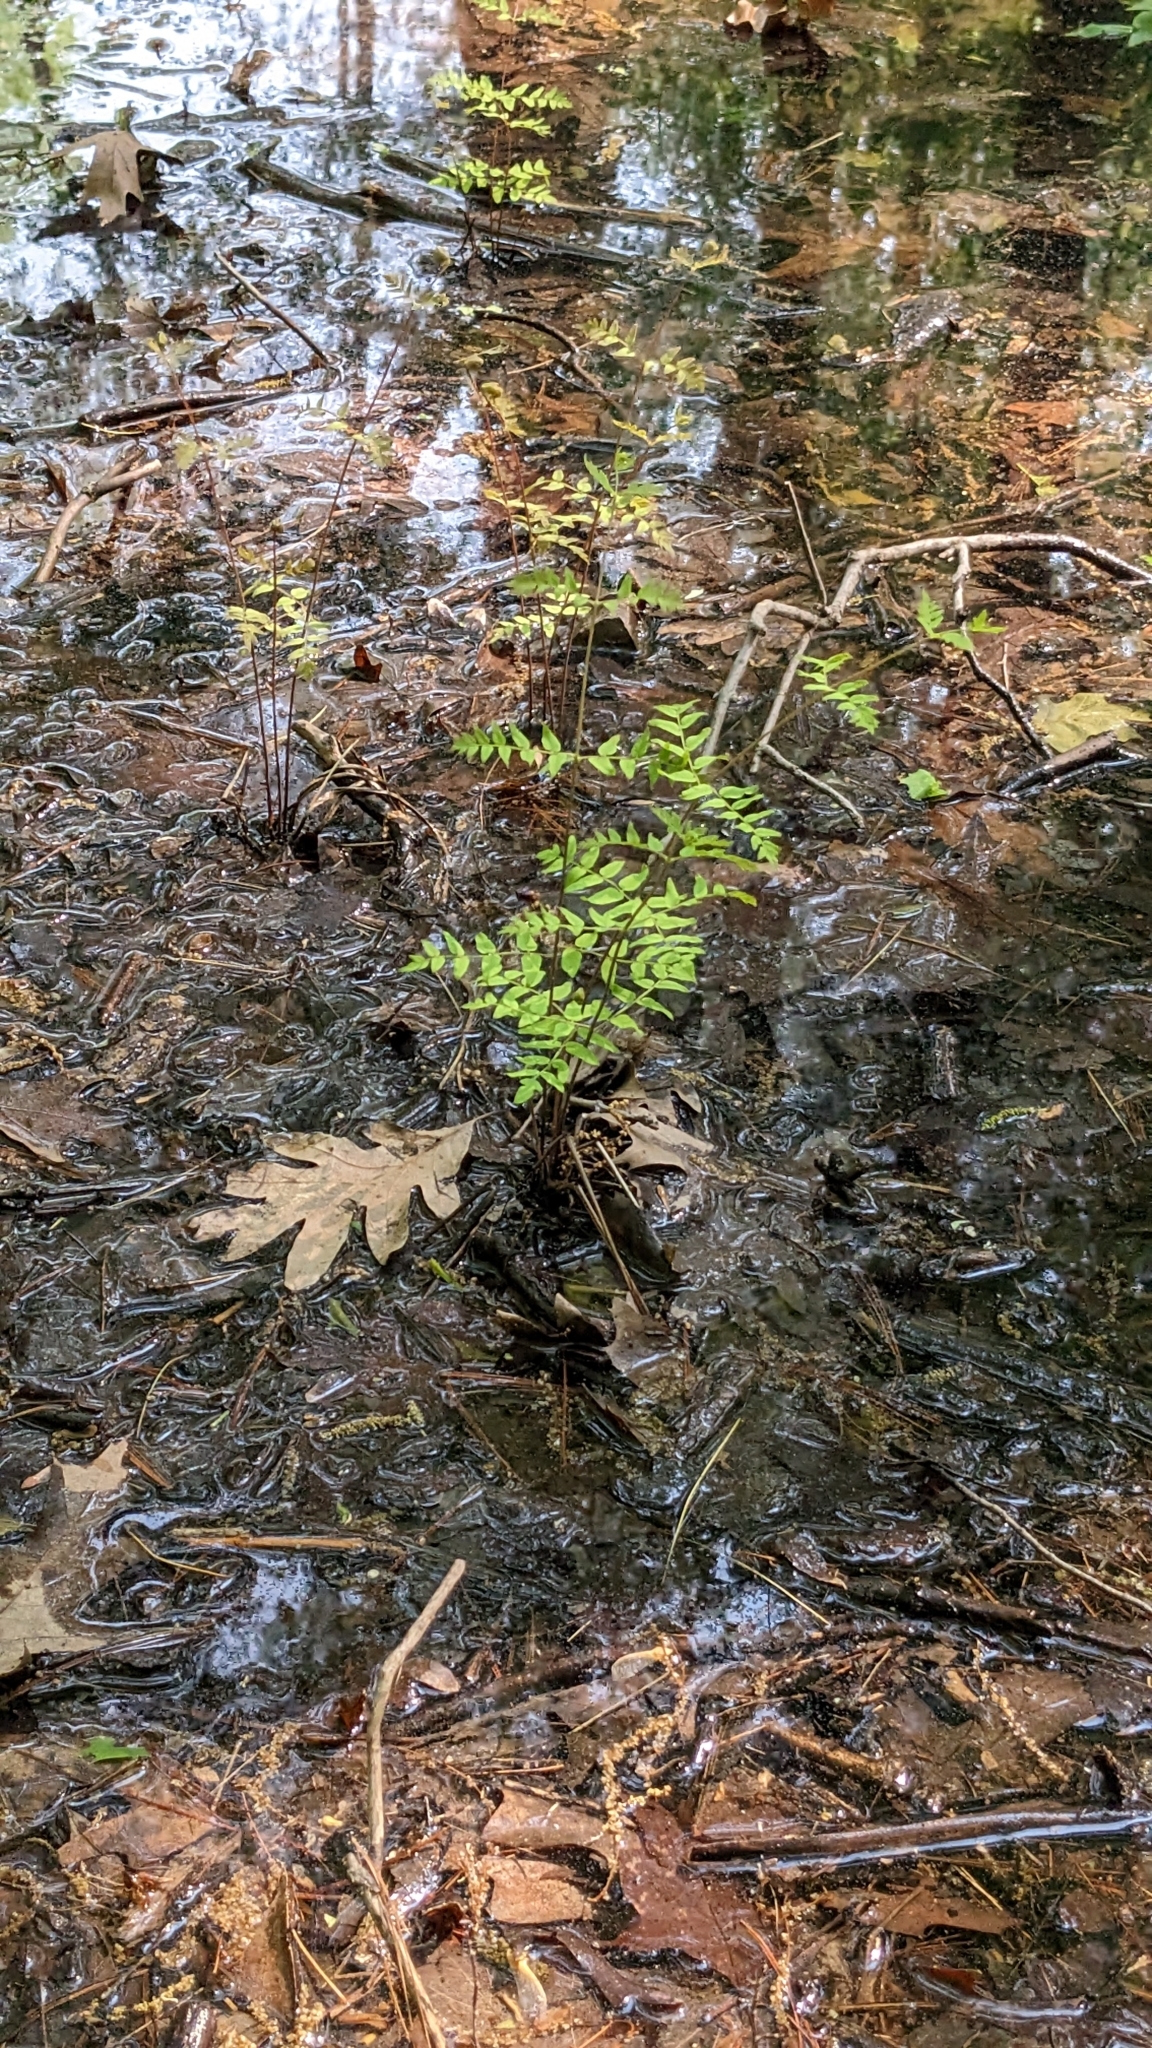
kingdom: Plantae
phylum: Tracheophyta
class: Polypodiopsida
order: Osmundales
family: Osmundaceae
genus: Osmunda
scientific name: Osmunda spectabilis
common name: American royal fern
